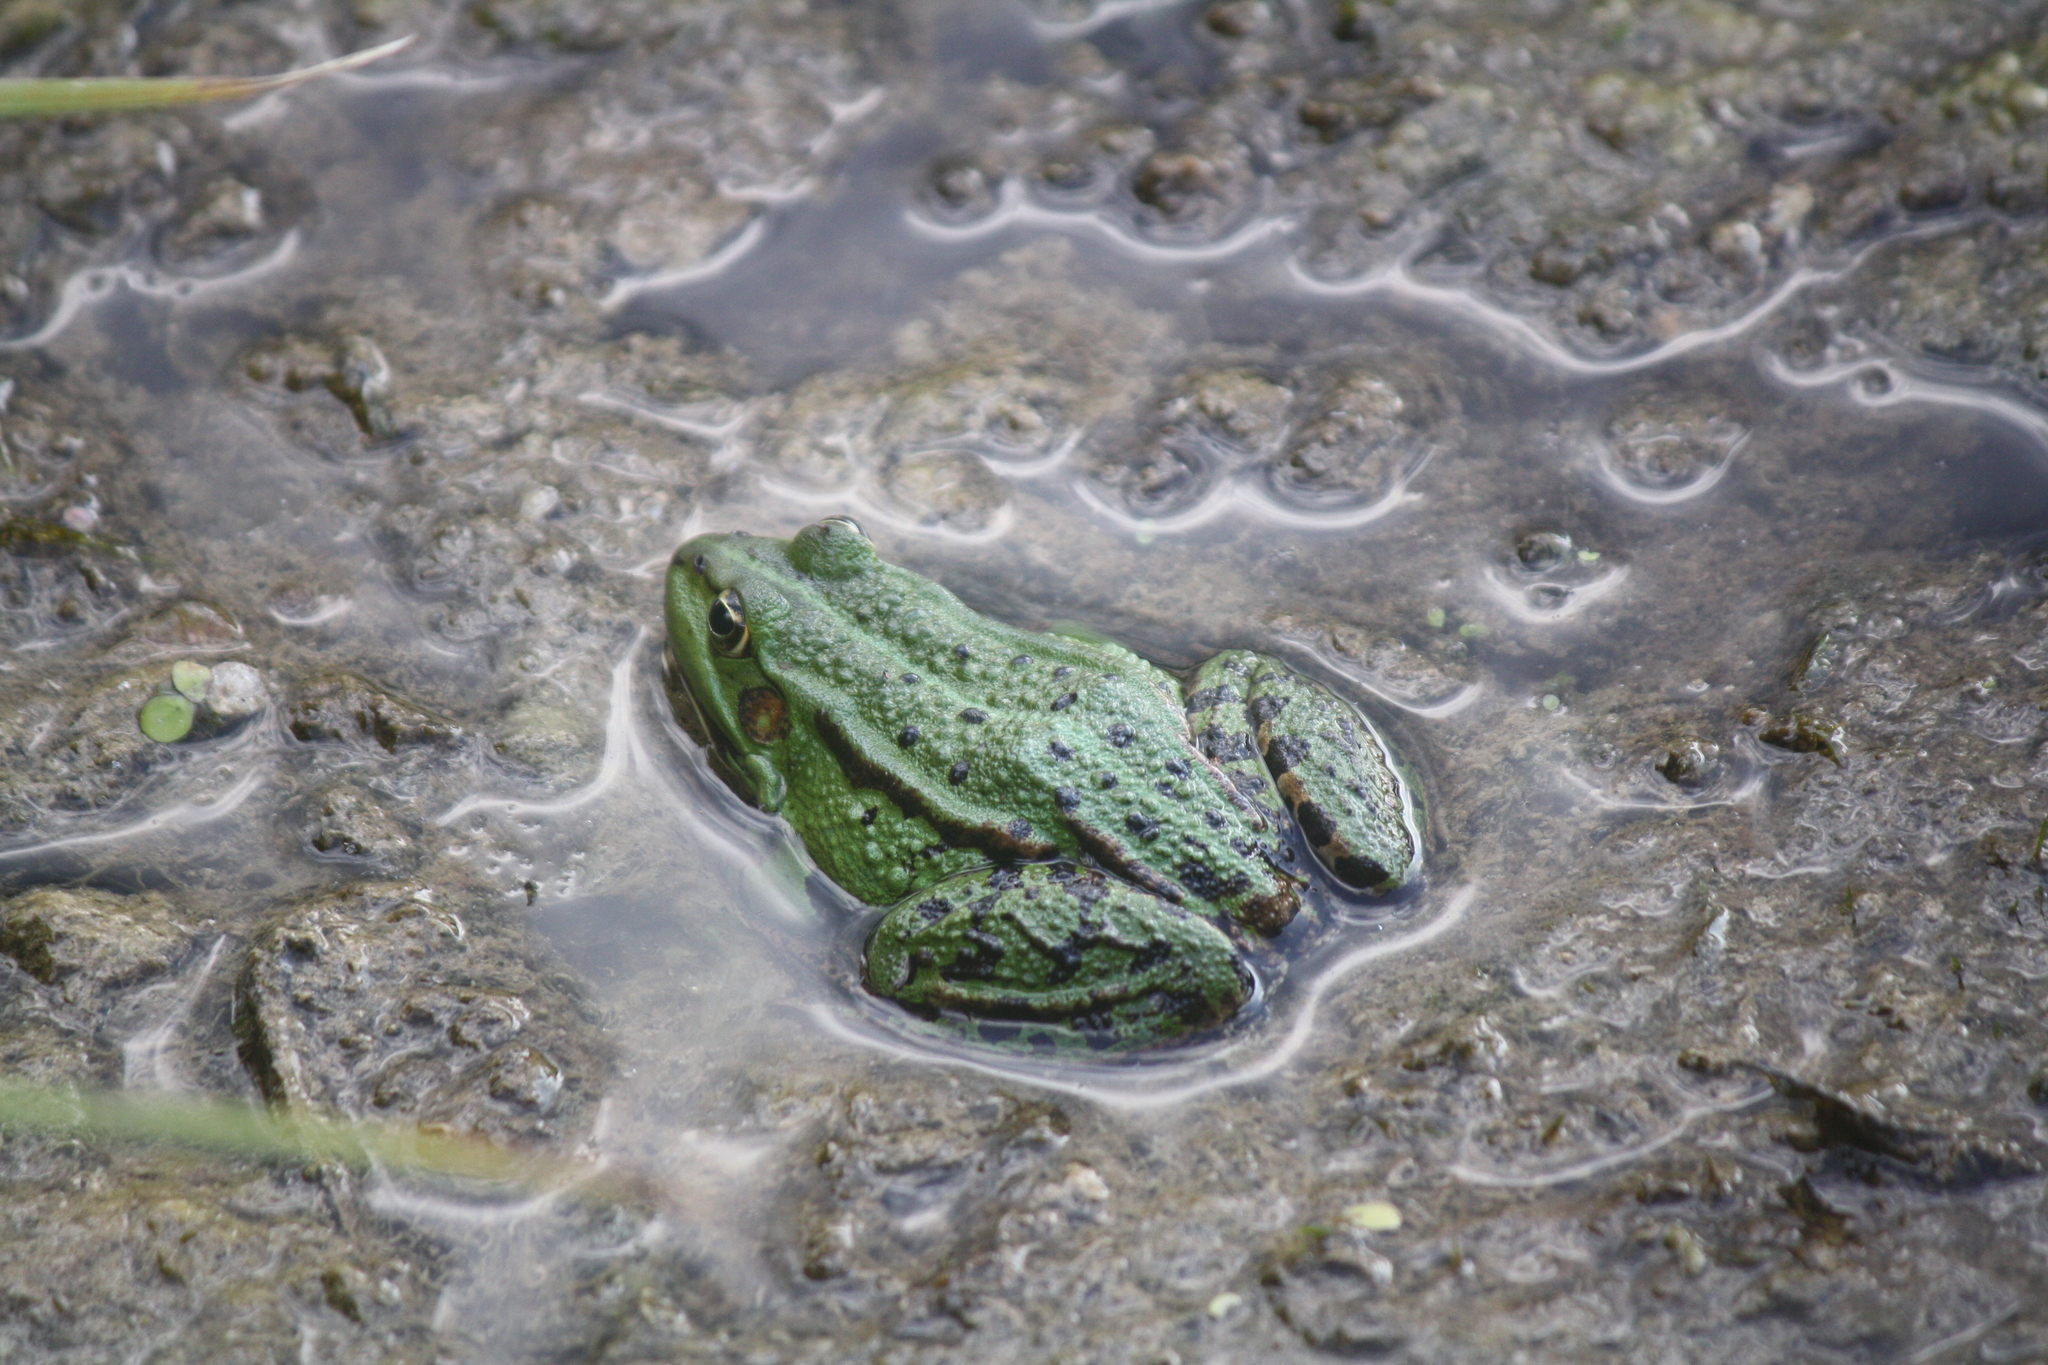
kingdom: Animalia
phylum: Chordata
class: Amphibia
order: Anura
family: Ranidae
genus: Pelophylax
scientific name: Pelophylax
